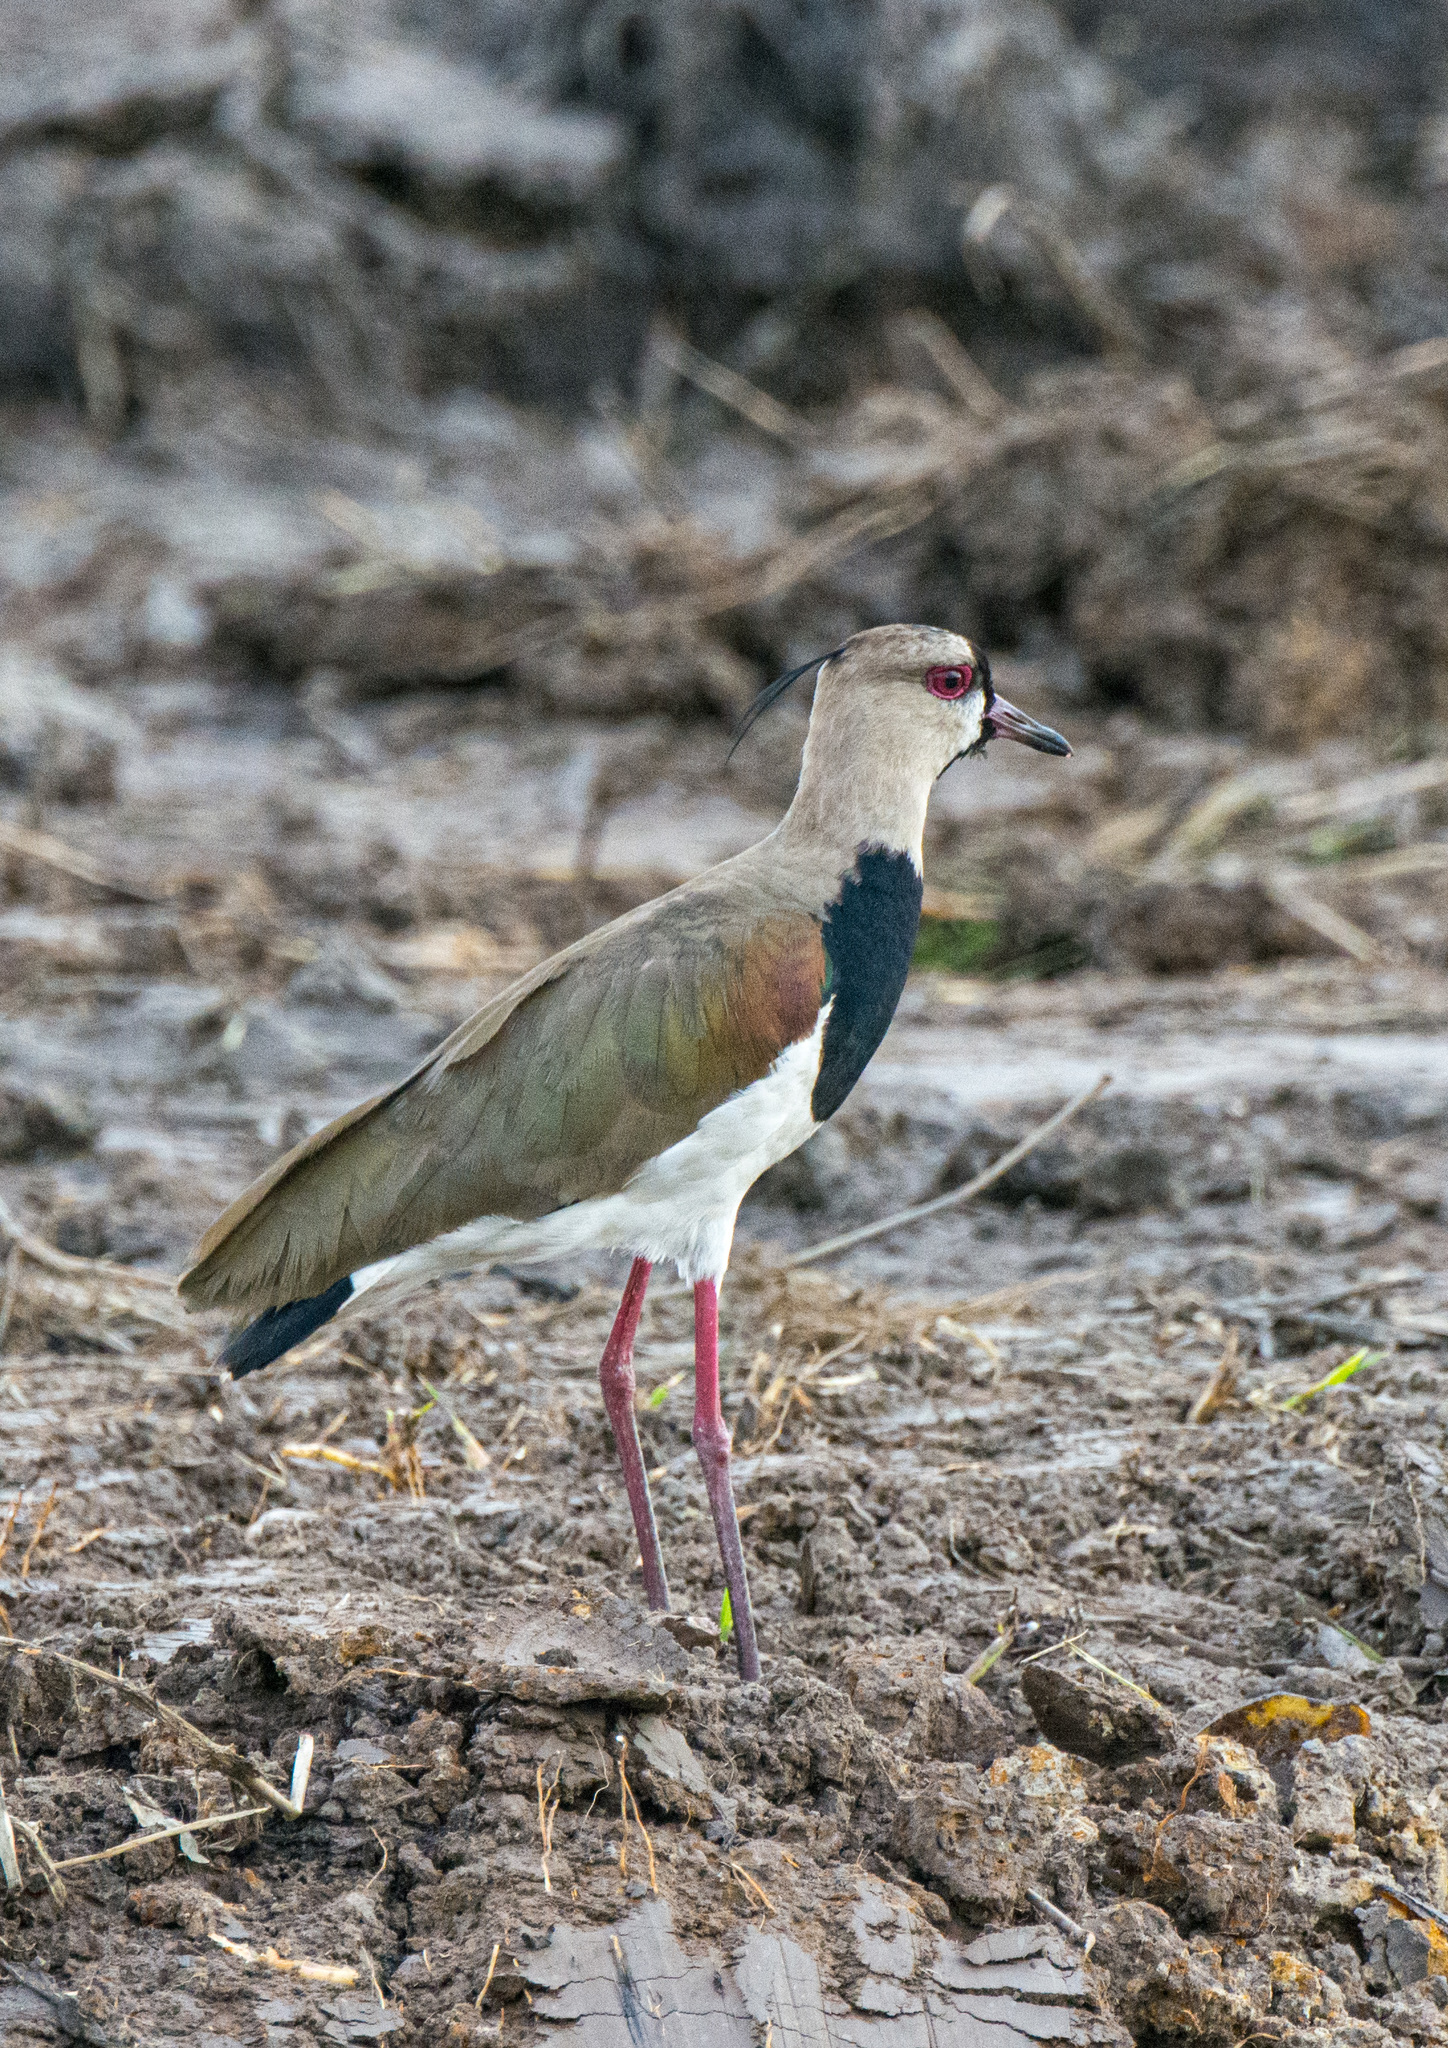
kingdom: Animalia
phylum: Chordata
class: Aves
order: Charadriiformes
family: Charadriidae
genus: Vanellus
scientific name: Vanellus chilensis
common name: Southern lapwing
